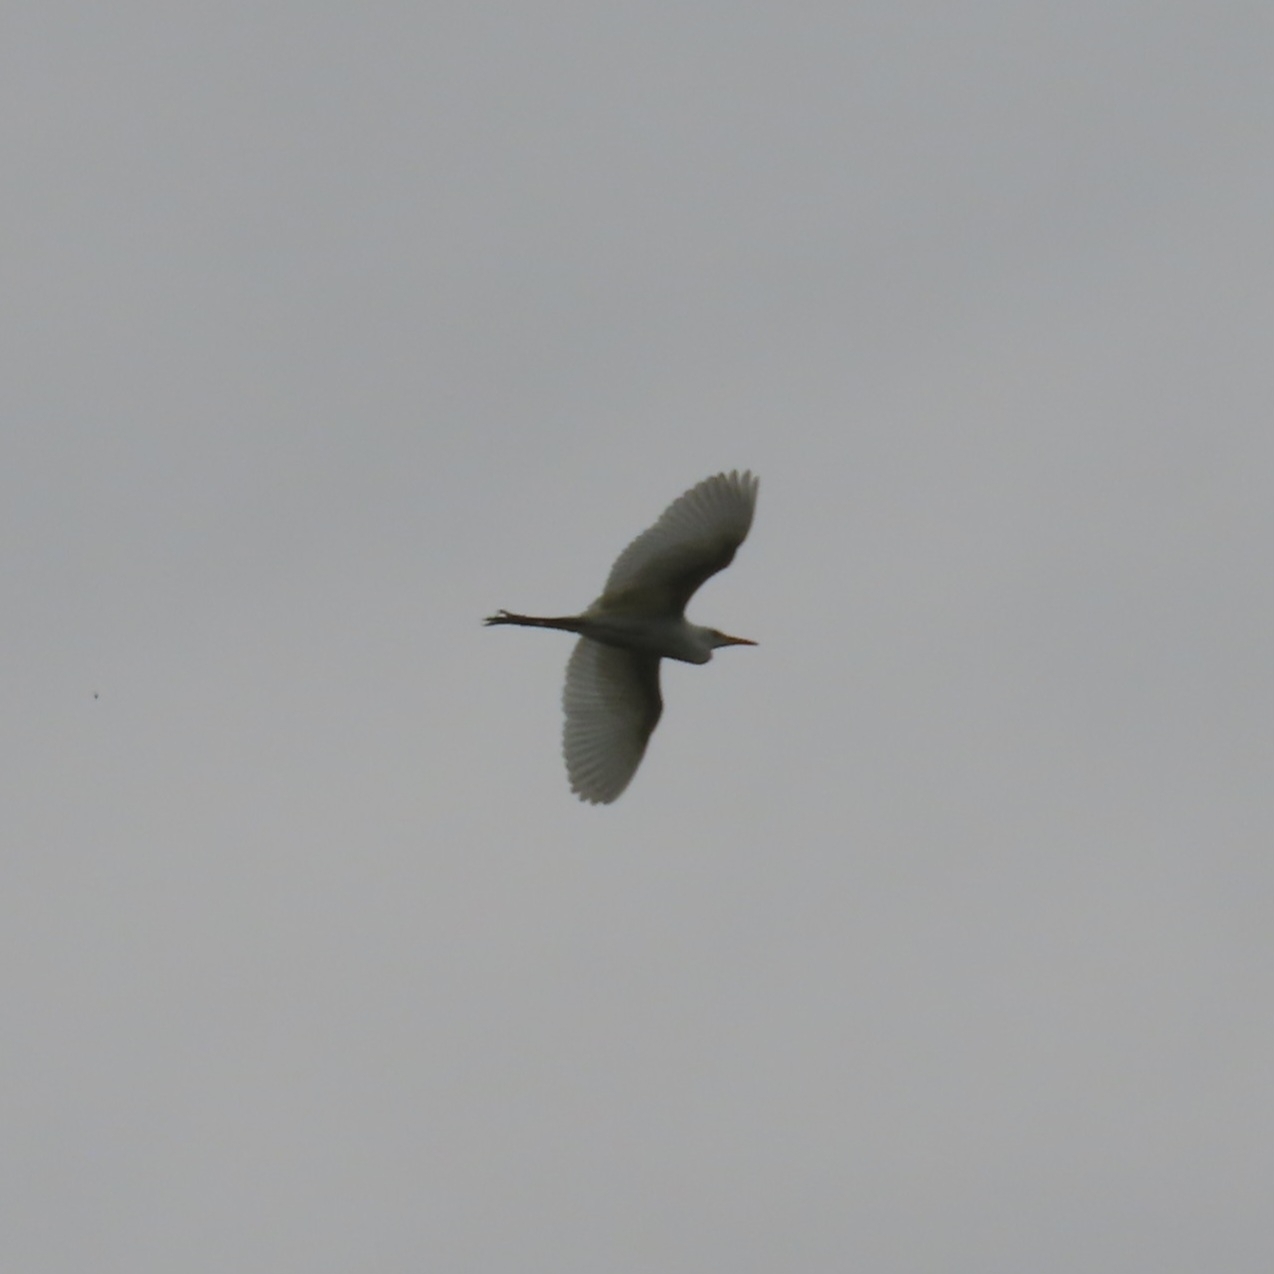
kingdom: Animalia
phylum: Chordata
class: Aves
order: Pelecaniformes
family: Ardeidae
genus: Bubulcus
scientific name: Bubulcus ibis
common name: Cattle egret
